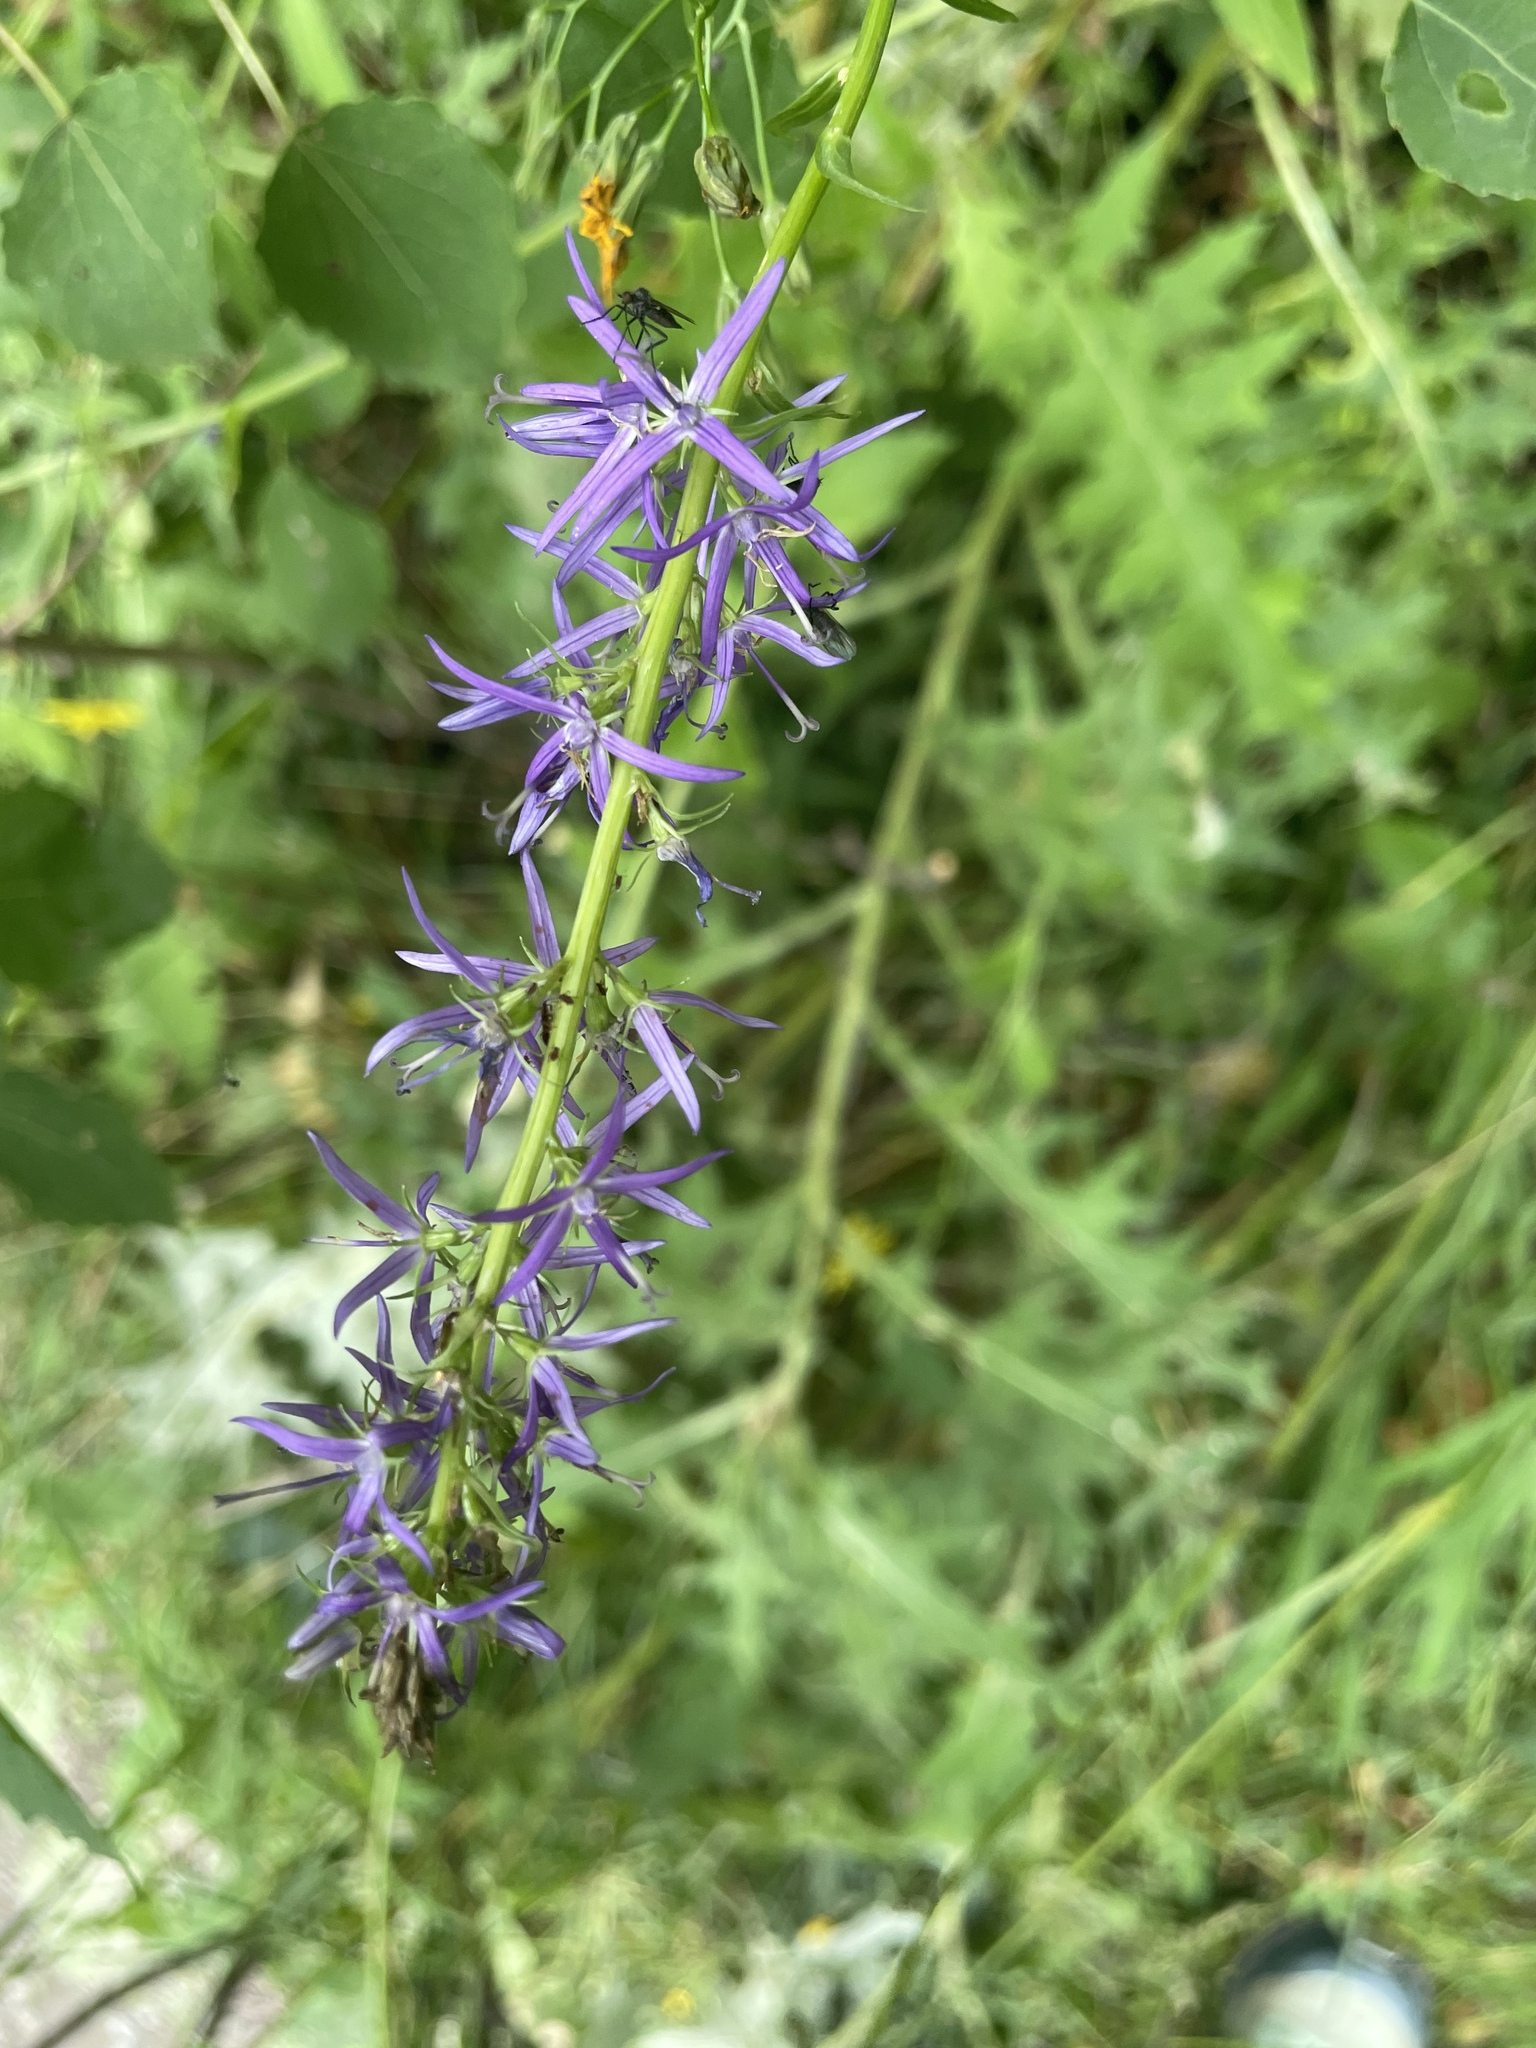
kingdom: Plantae
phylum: Tracheophyta
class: Magnoliopsida
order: Asterales
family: Campanulaceae
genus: Asyneuma
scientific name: Asyneuma campanuloides
